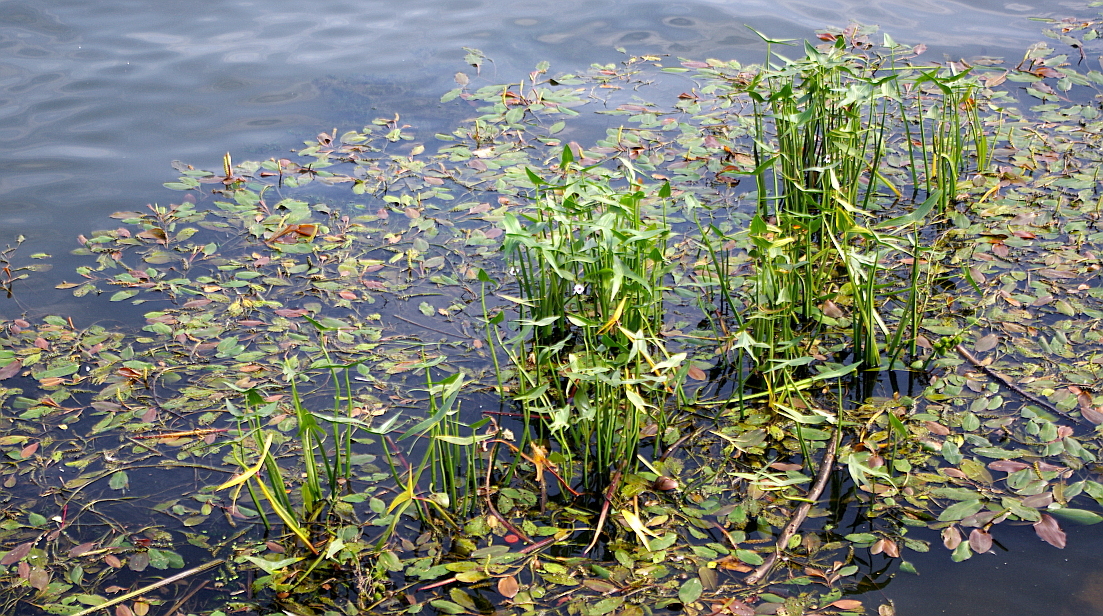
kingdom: Plantae
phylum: Tracheophyta
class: Liliopsida
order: Alismatales
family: Alismataceae
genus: Sagittaria
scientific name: Sagittaria sagittifolia
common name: Arrowhead
